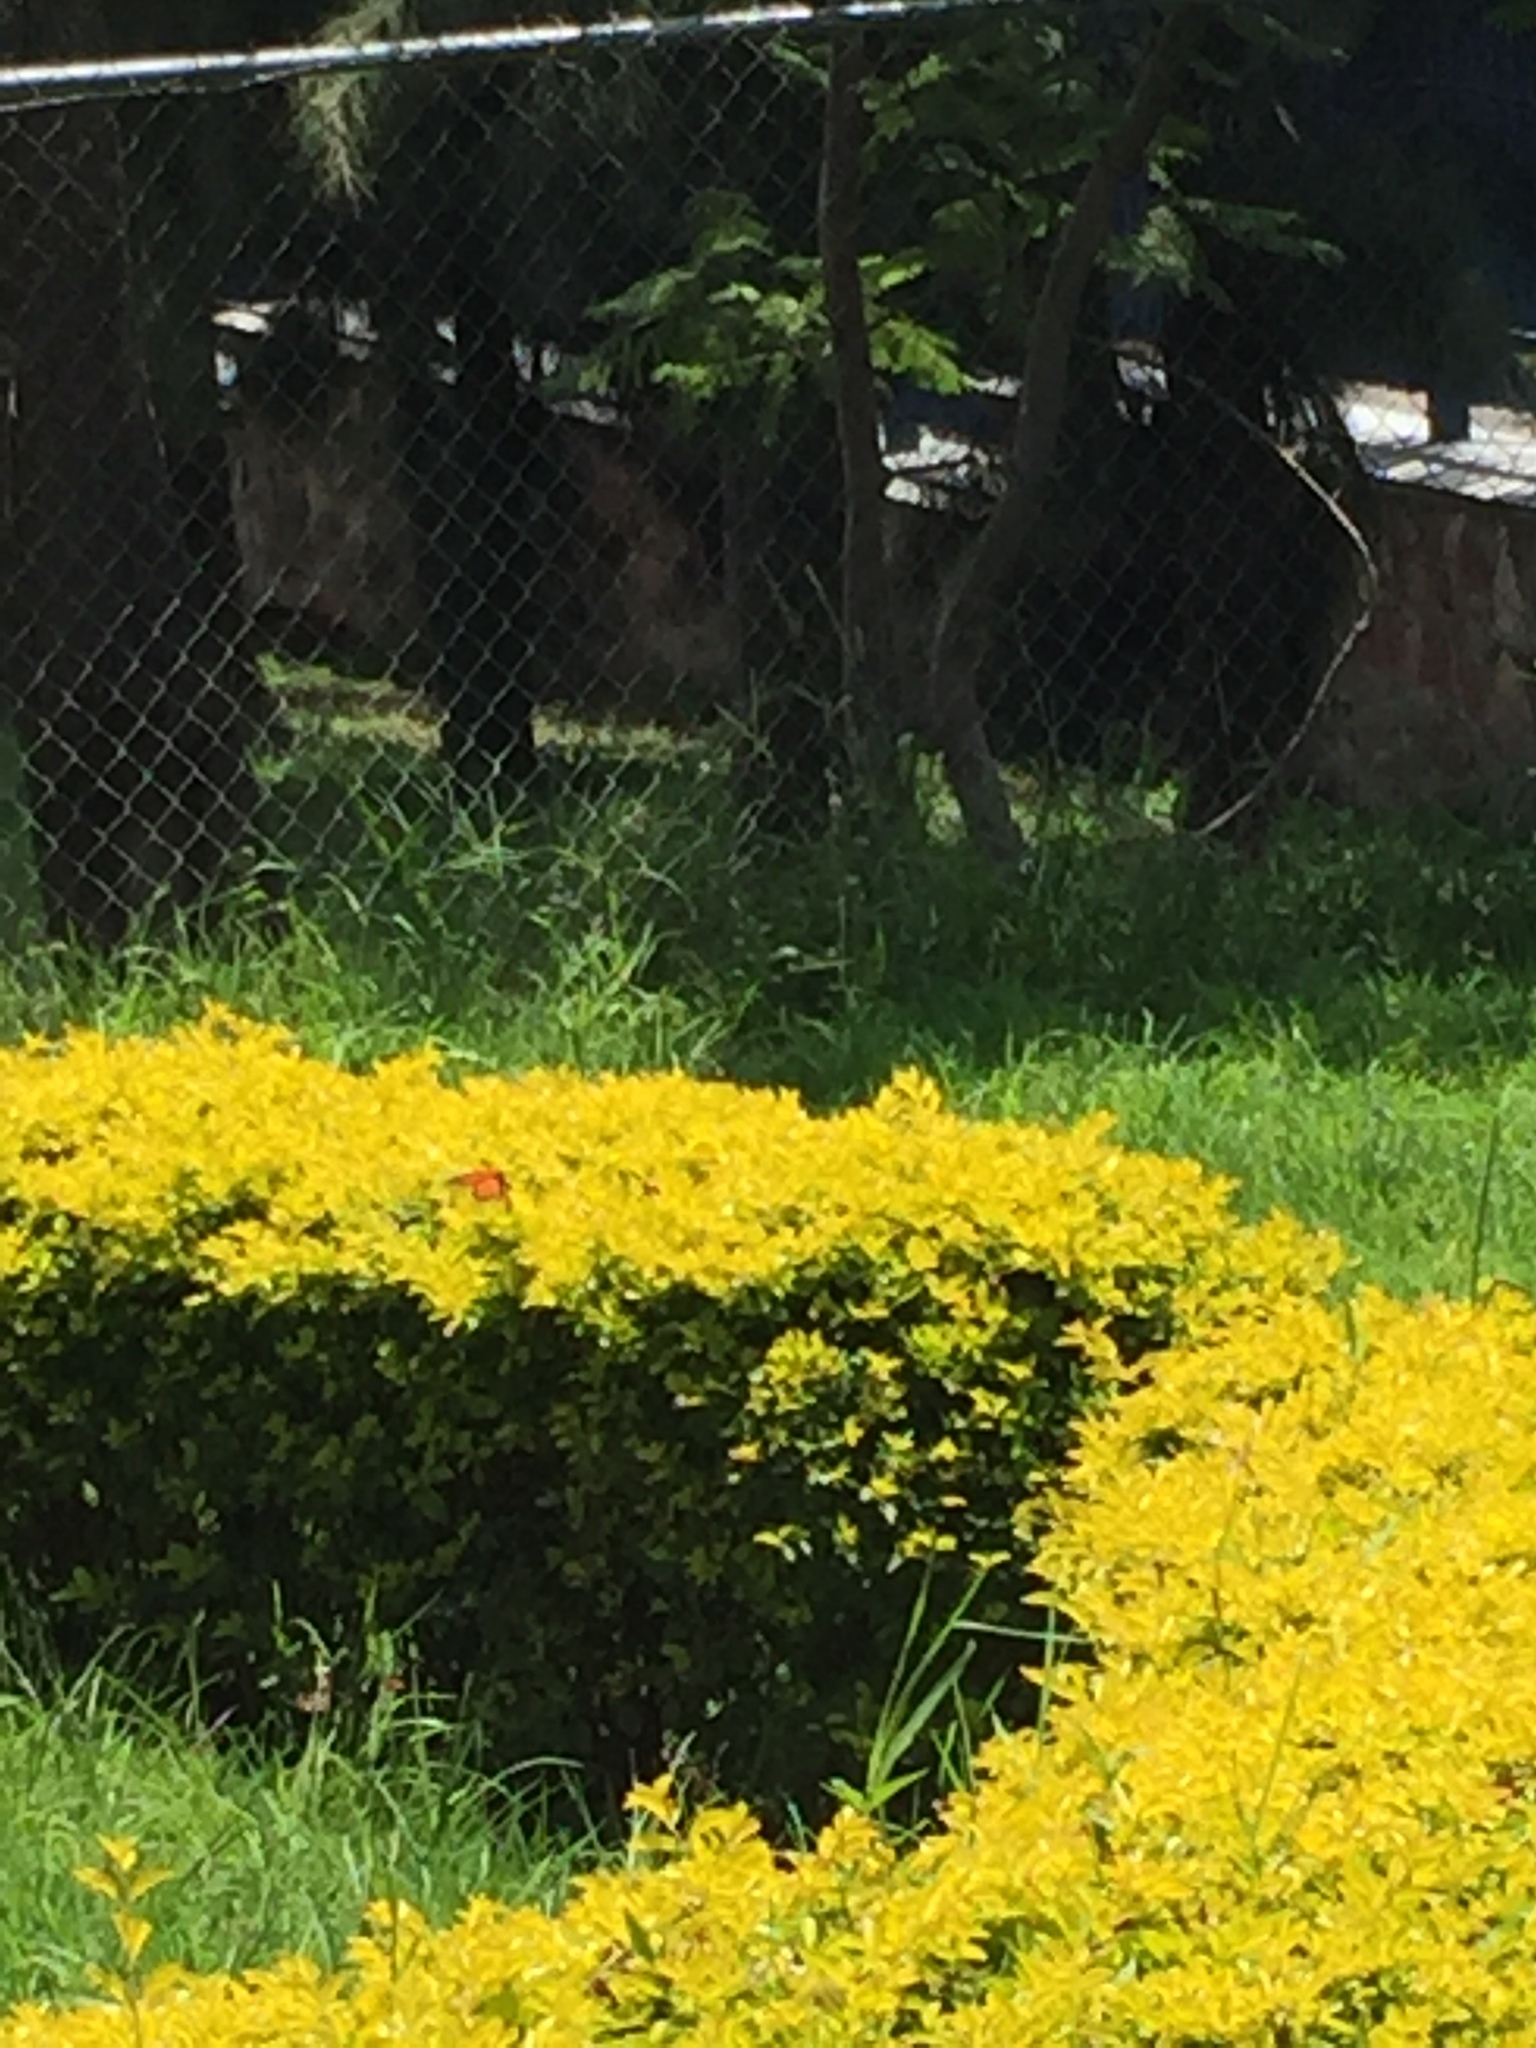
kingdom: Animalia
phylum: Arthropoda
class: Insecta
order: Lepidoptera
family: Nymphalidae
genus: Danaus
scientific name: Danaus plexippus
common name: Monarch
